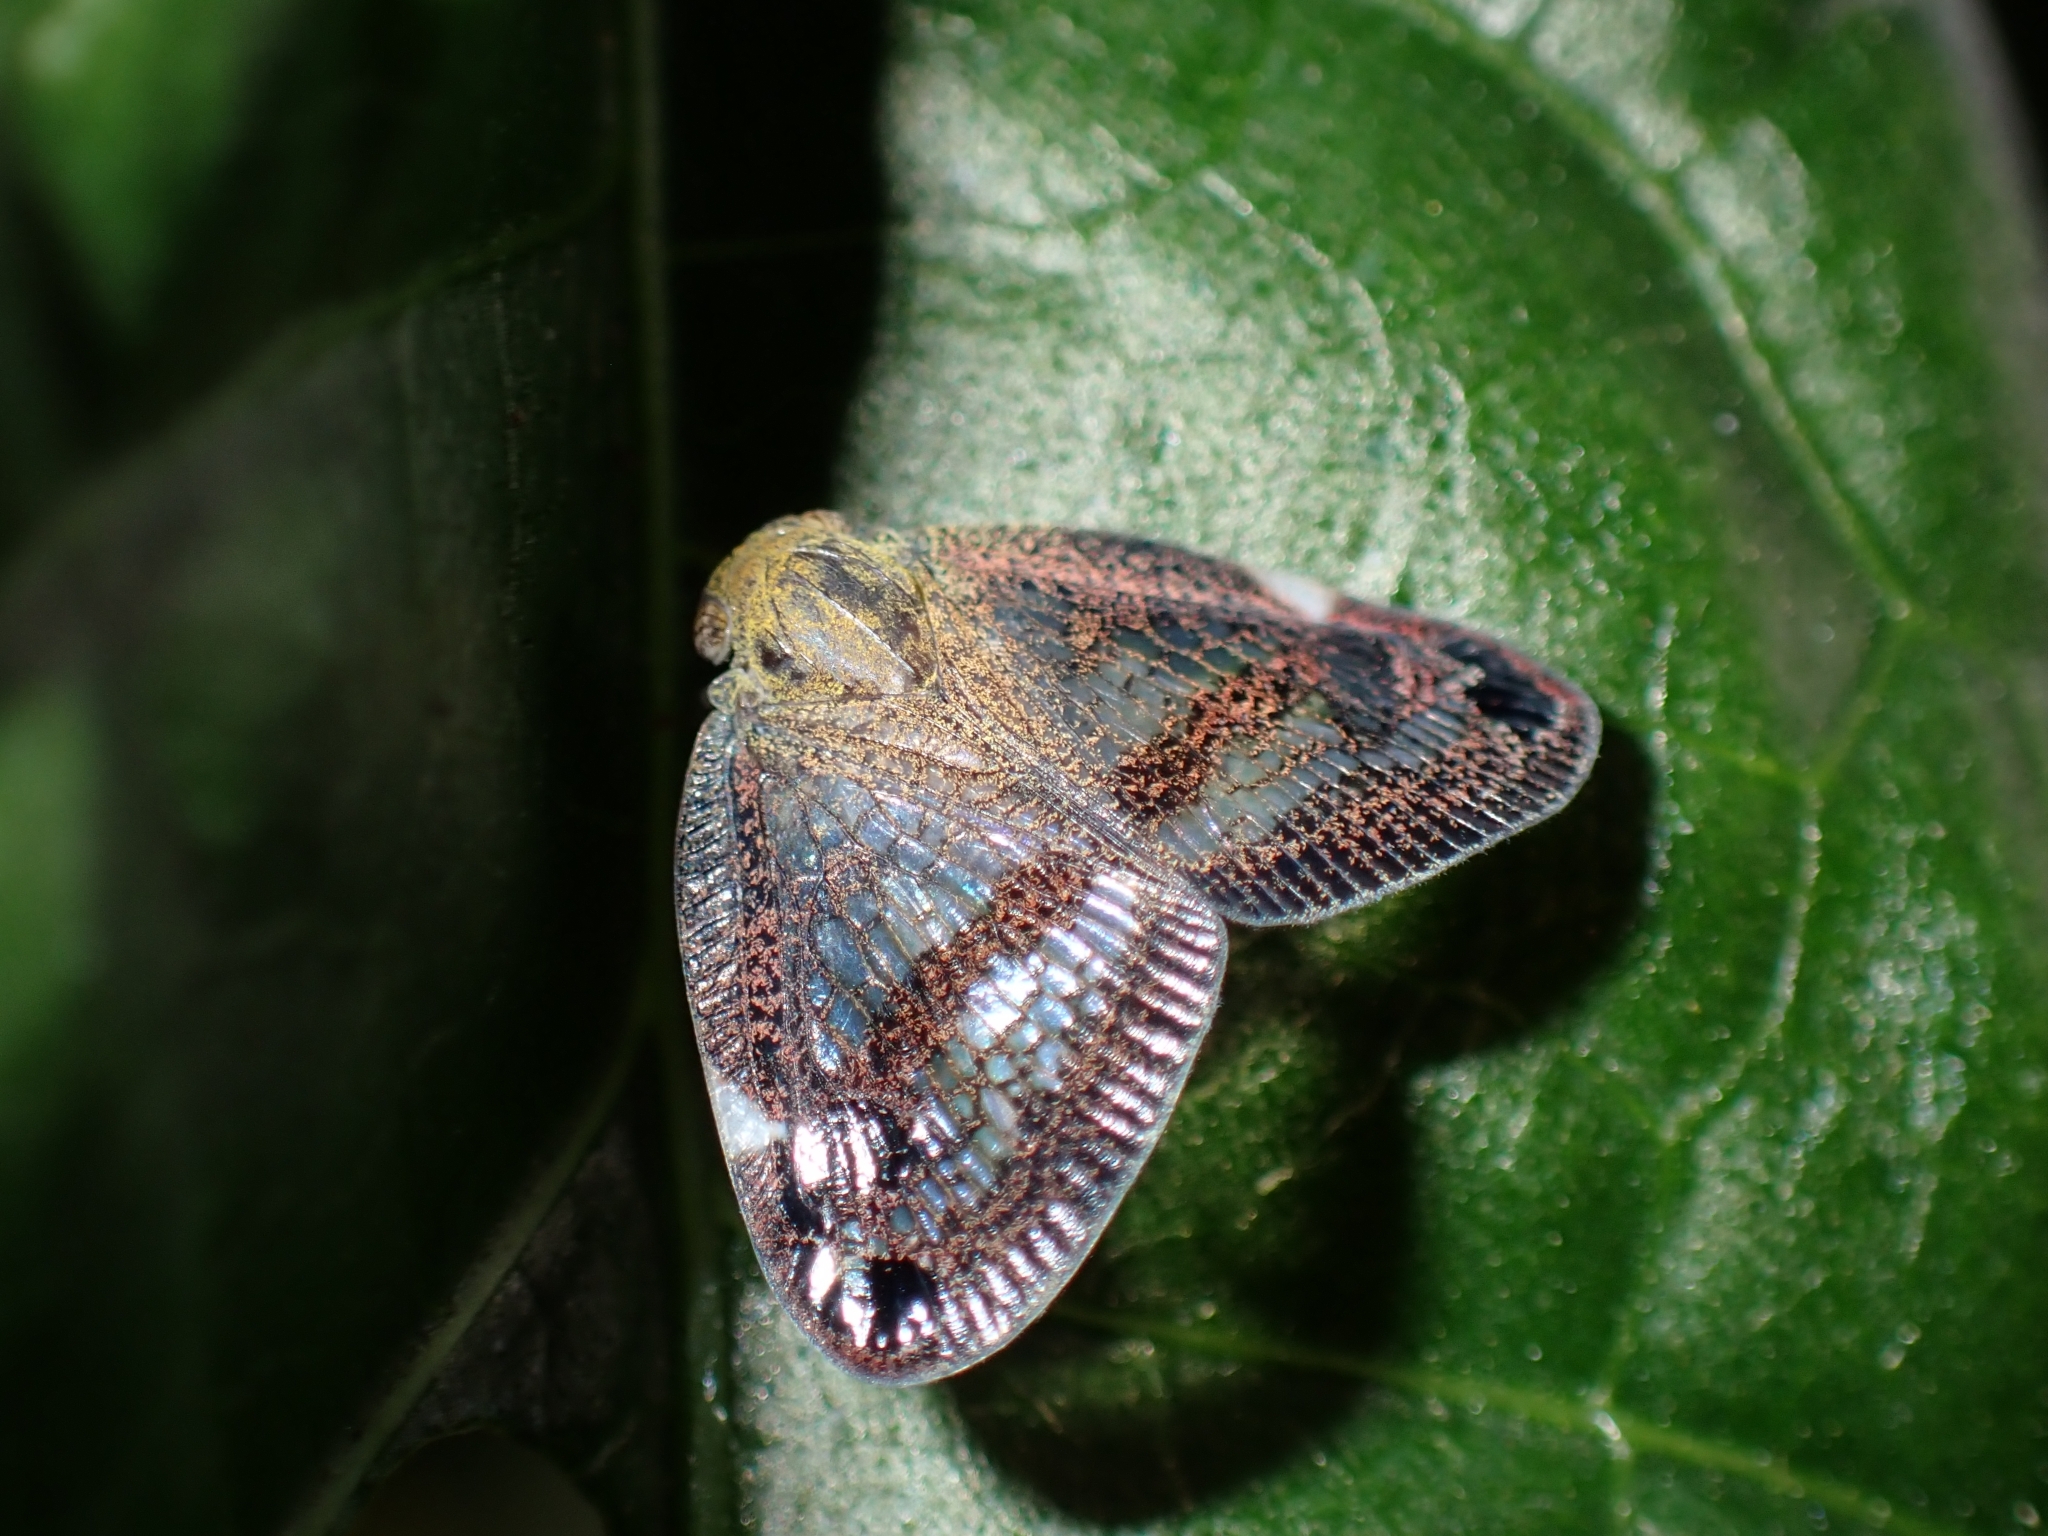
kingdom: Animalia
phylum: Arthropoda
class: Insecta
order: Hemiptera
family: Ricaniidae
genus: Parapiromis
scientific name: Parapiromis translucida
